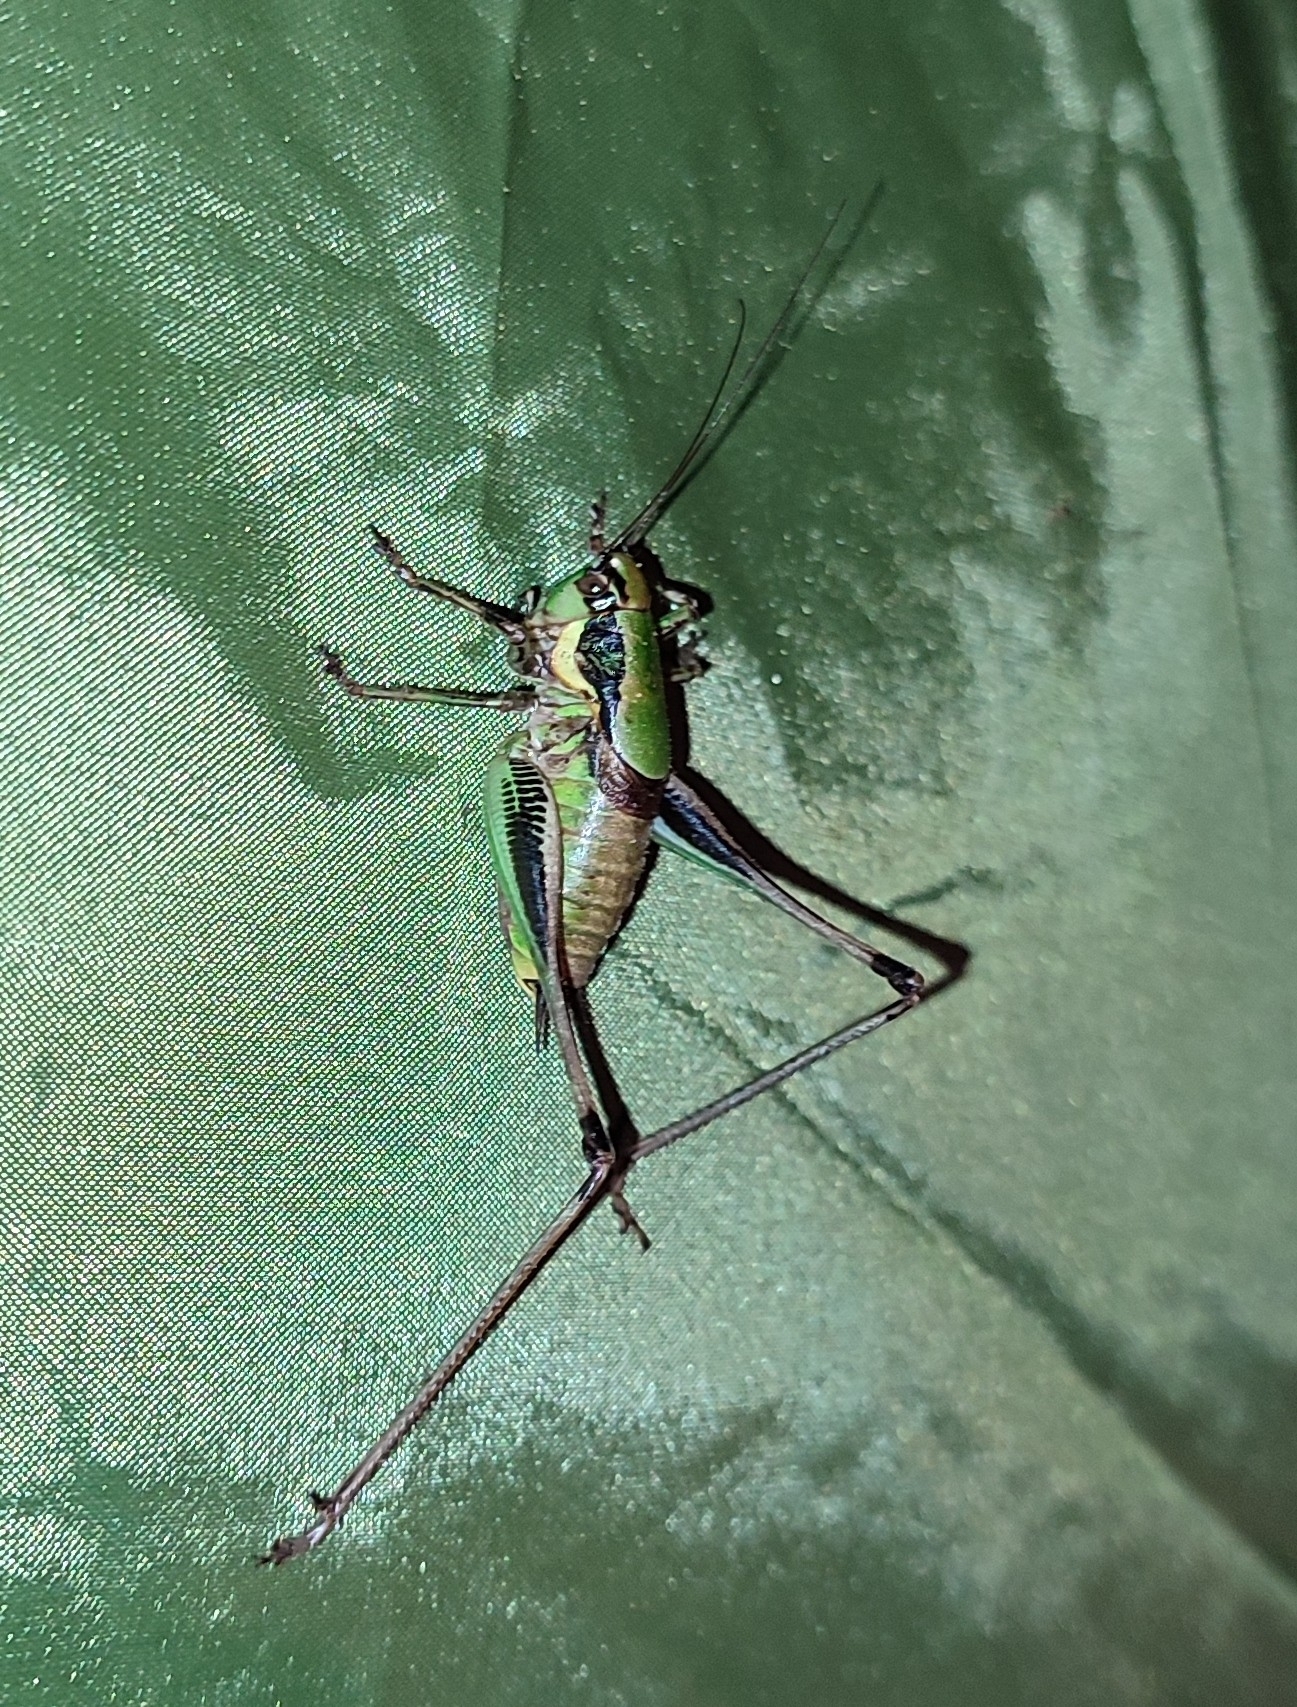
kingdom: Animalia
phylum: Arthropoda
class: Insecta
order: Orthoptera
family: Tettigoniidae
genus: Eupholidoptera
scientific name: Eupholidoptera tyrrhenica
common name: Corsican marbled bush-cricket
